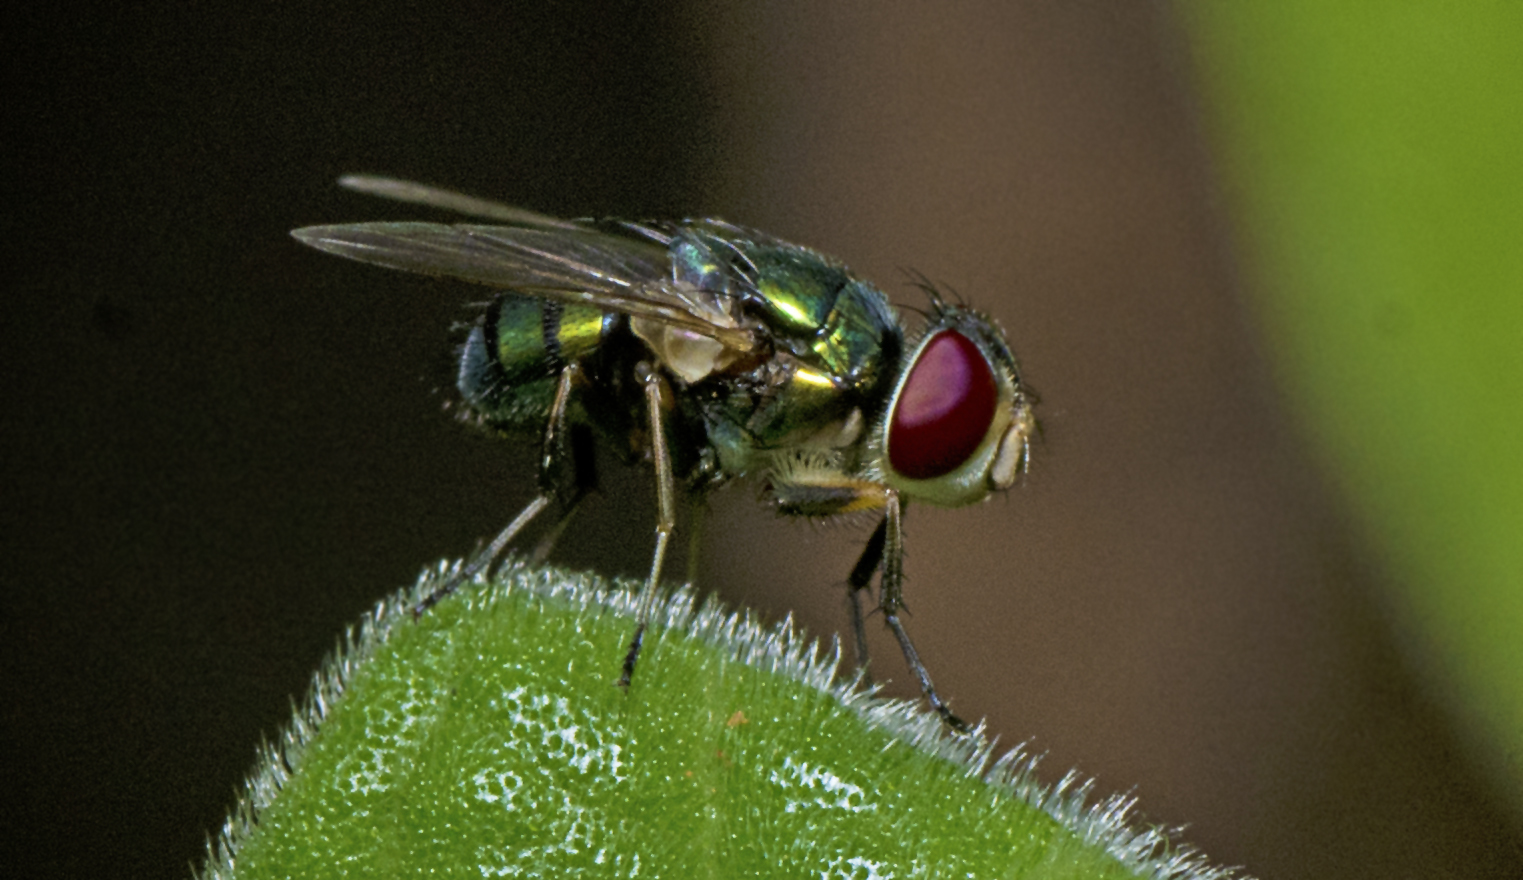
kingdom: Animalia
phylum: Arthropoda
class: Insecta
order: Diptera
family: Calliphoridae
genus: Chrysomya
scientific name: Chrysomya varipes
